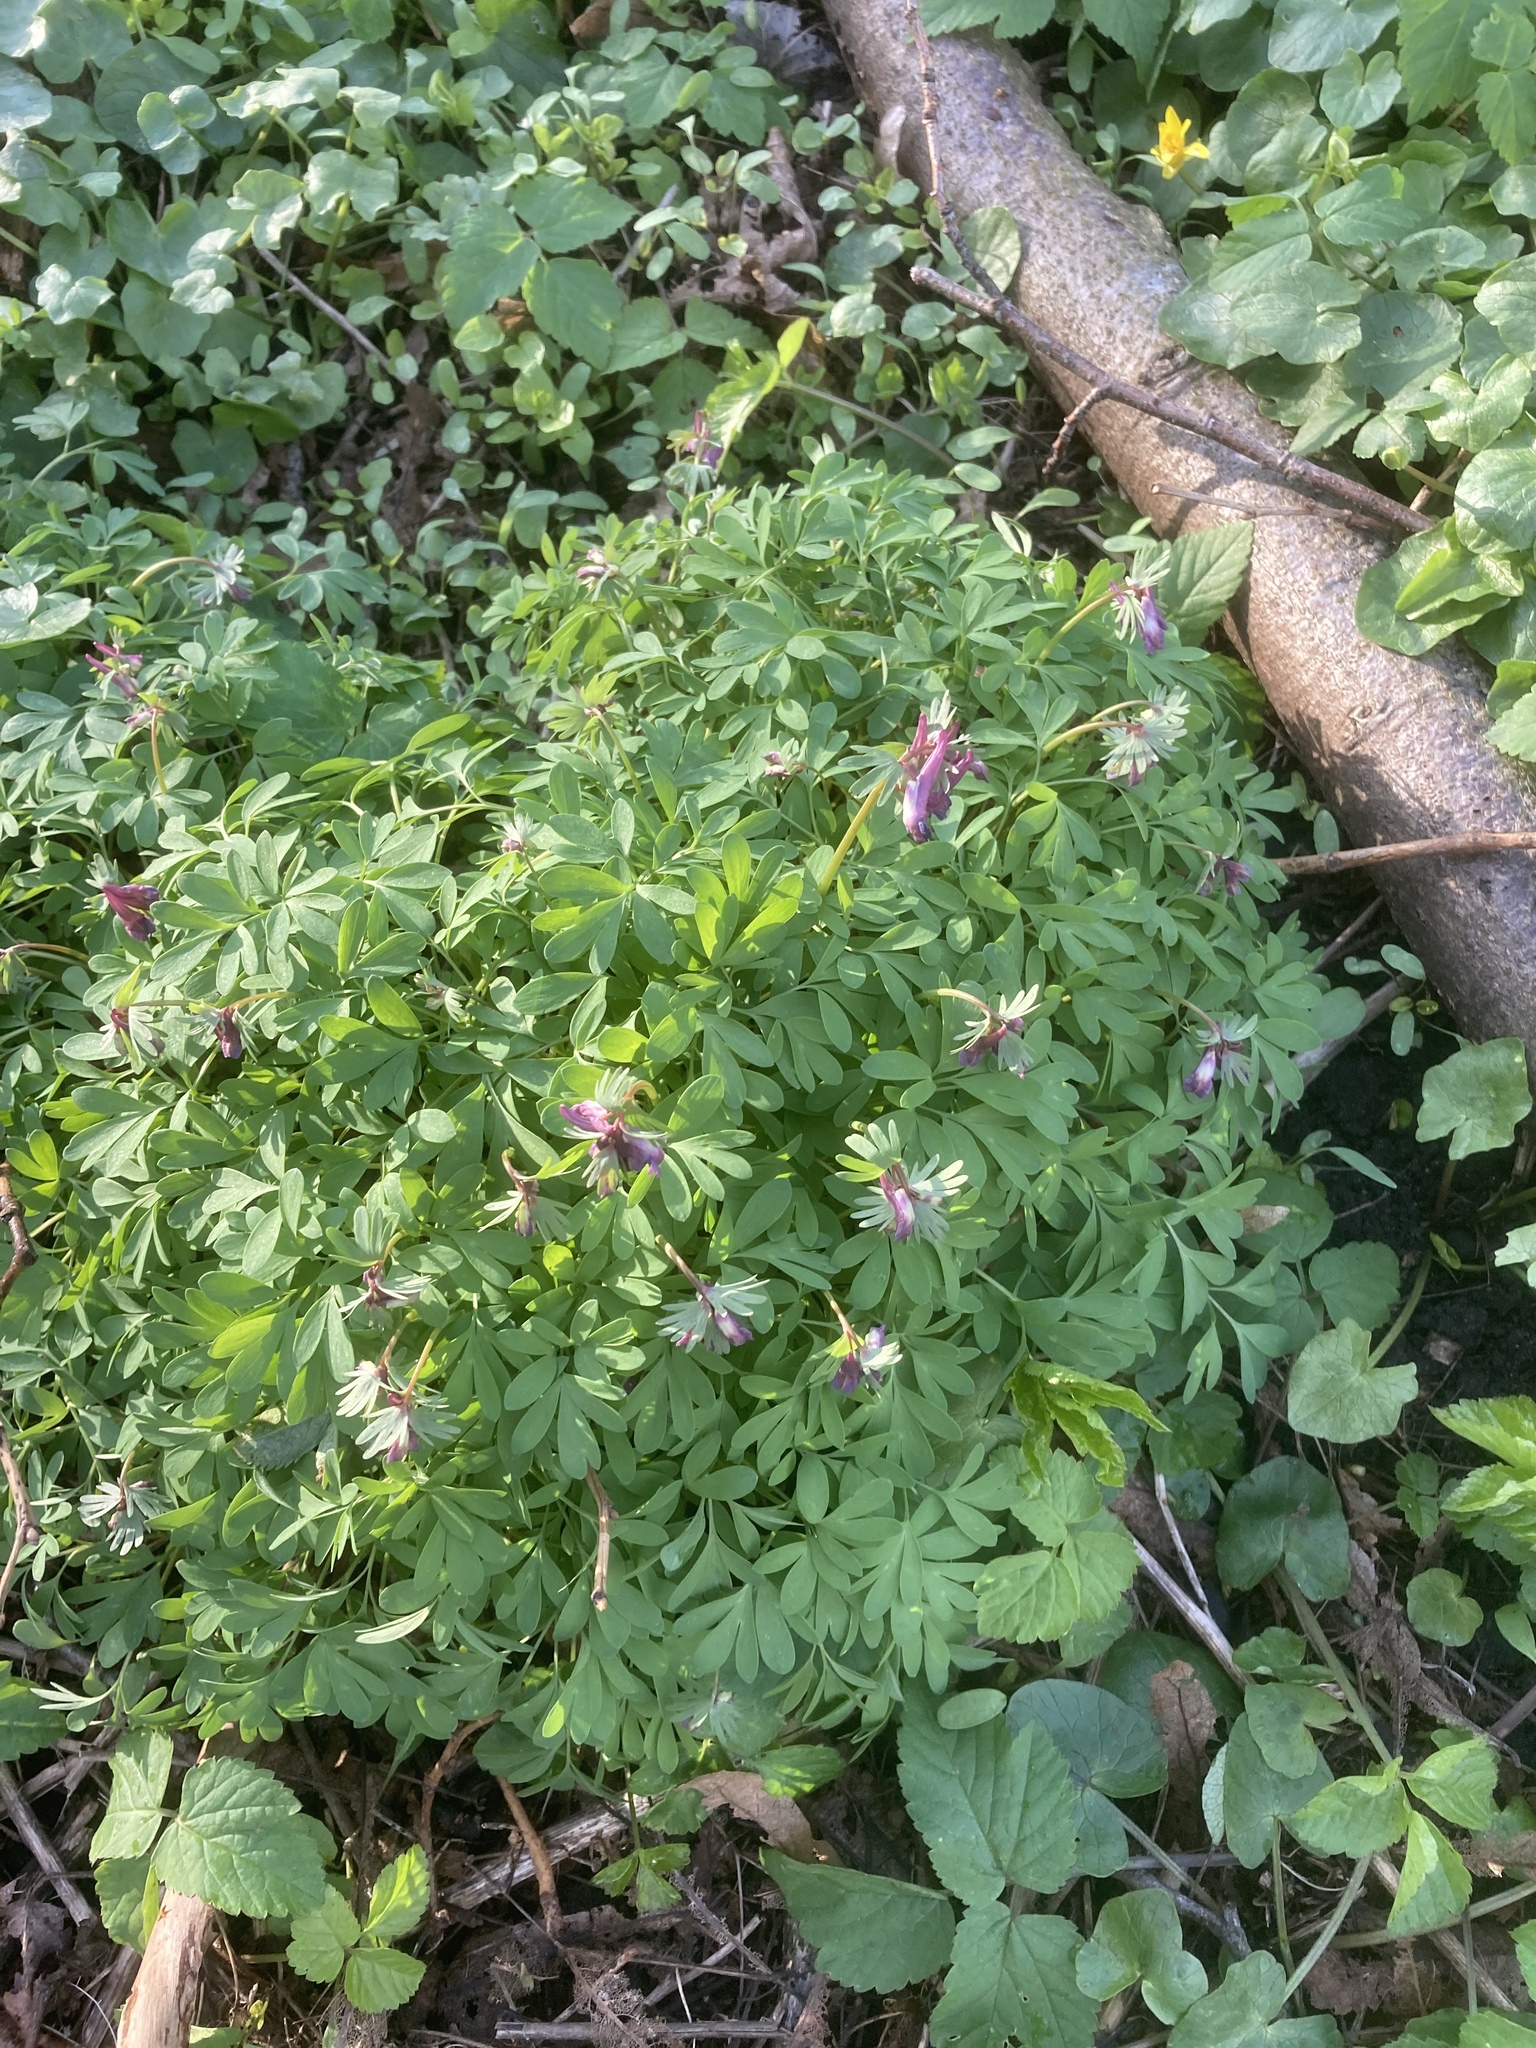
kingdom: Plantae
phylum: Tracheophyta
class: Magnoliopsida
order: Ranunculales
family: Papaveraceae
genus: Corydalis
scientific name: Corydalis solida
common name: Bird-in-a-bush
